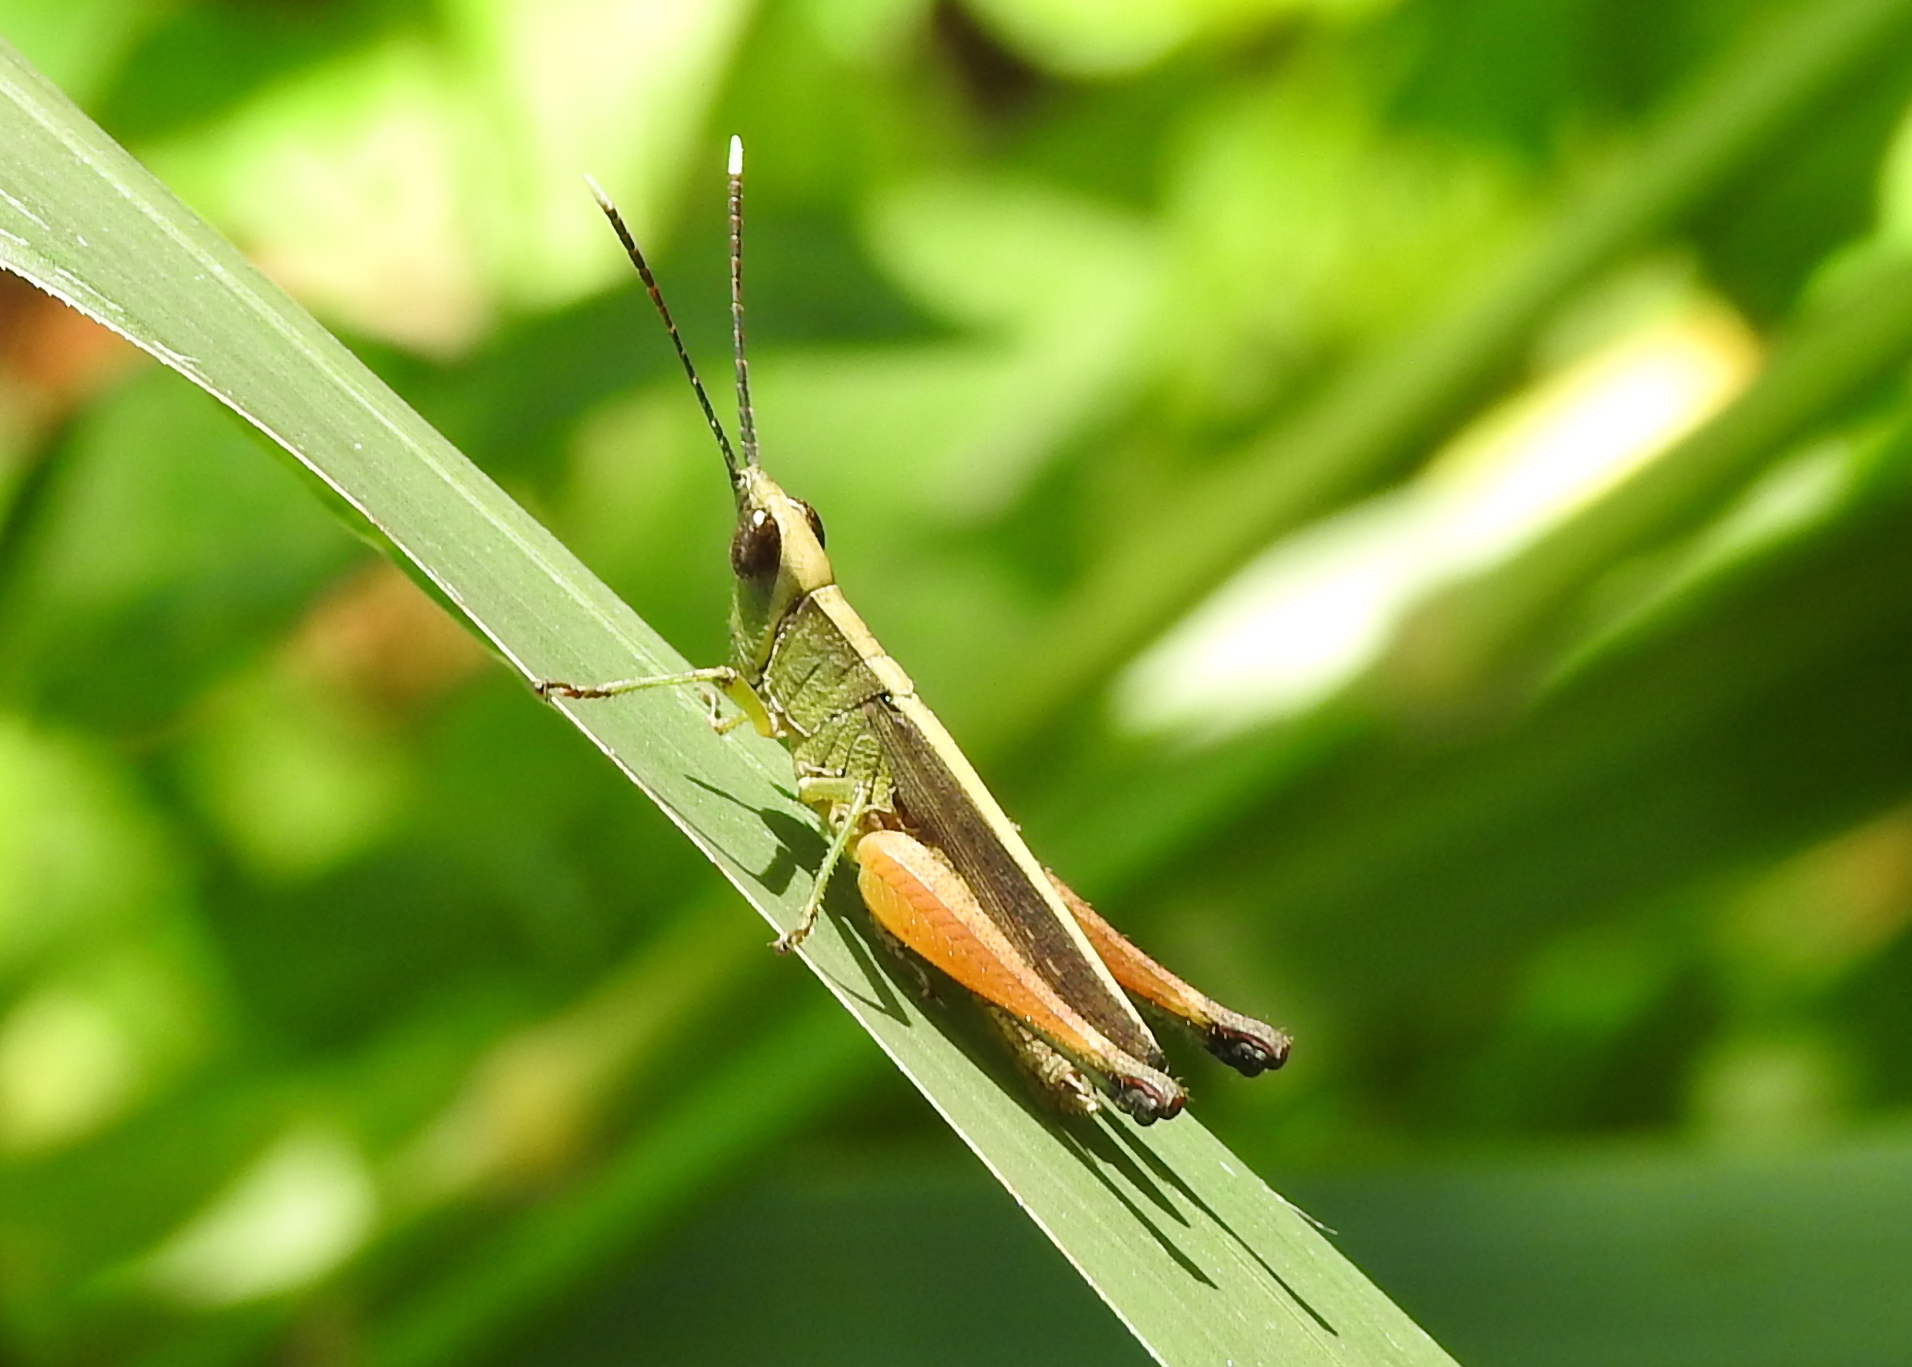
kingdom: Animalia
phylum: Arthropoda
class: Insecta
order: Orthoptera
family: Acrididae
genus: Phlaeoba
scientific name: Phlaeoba antennata
